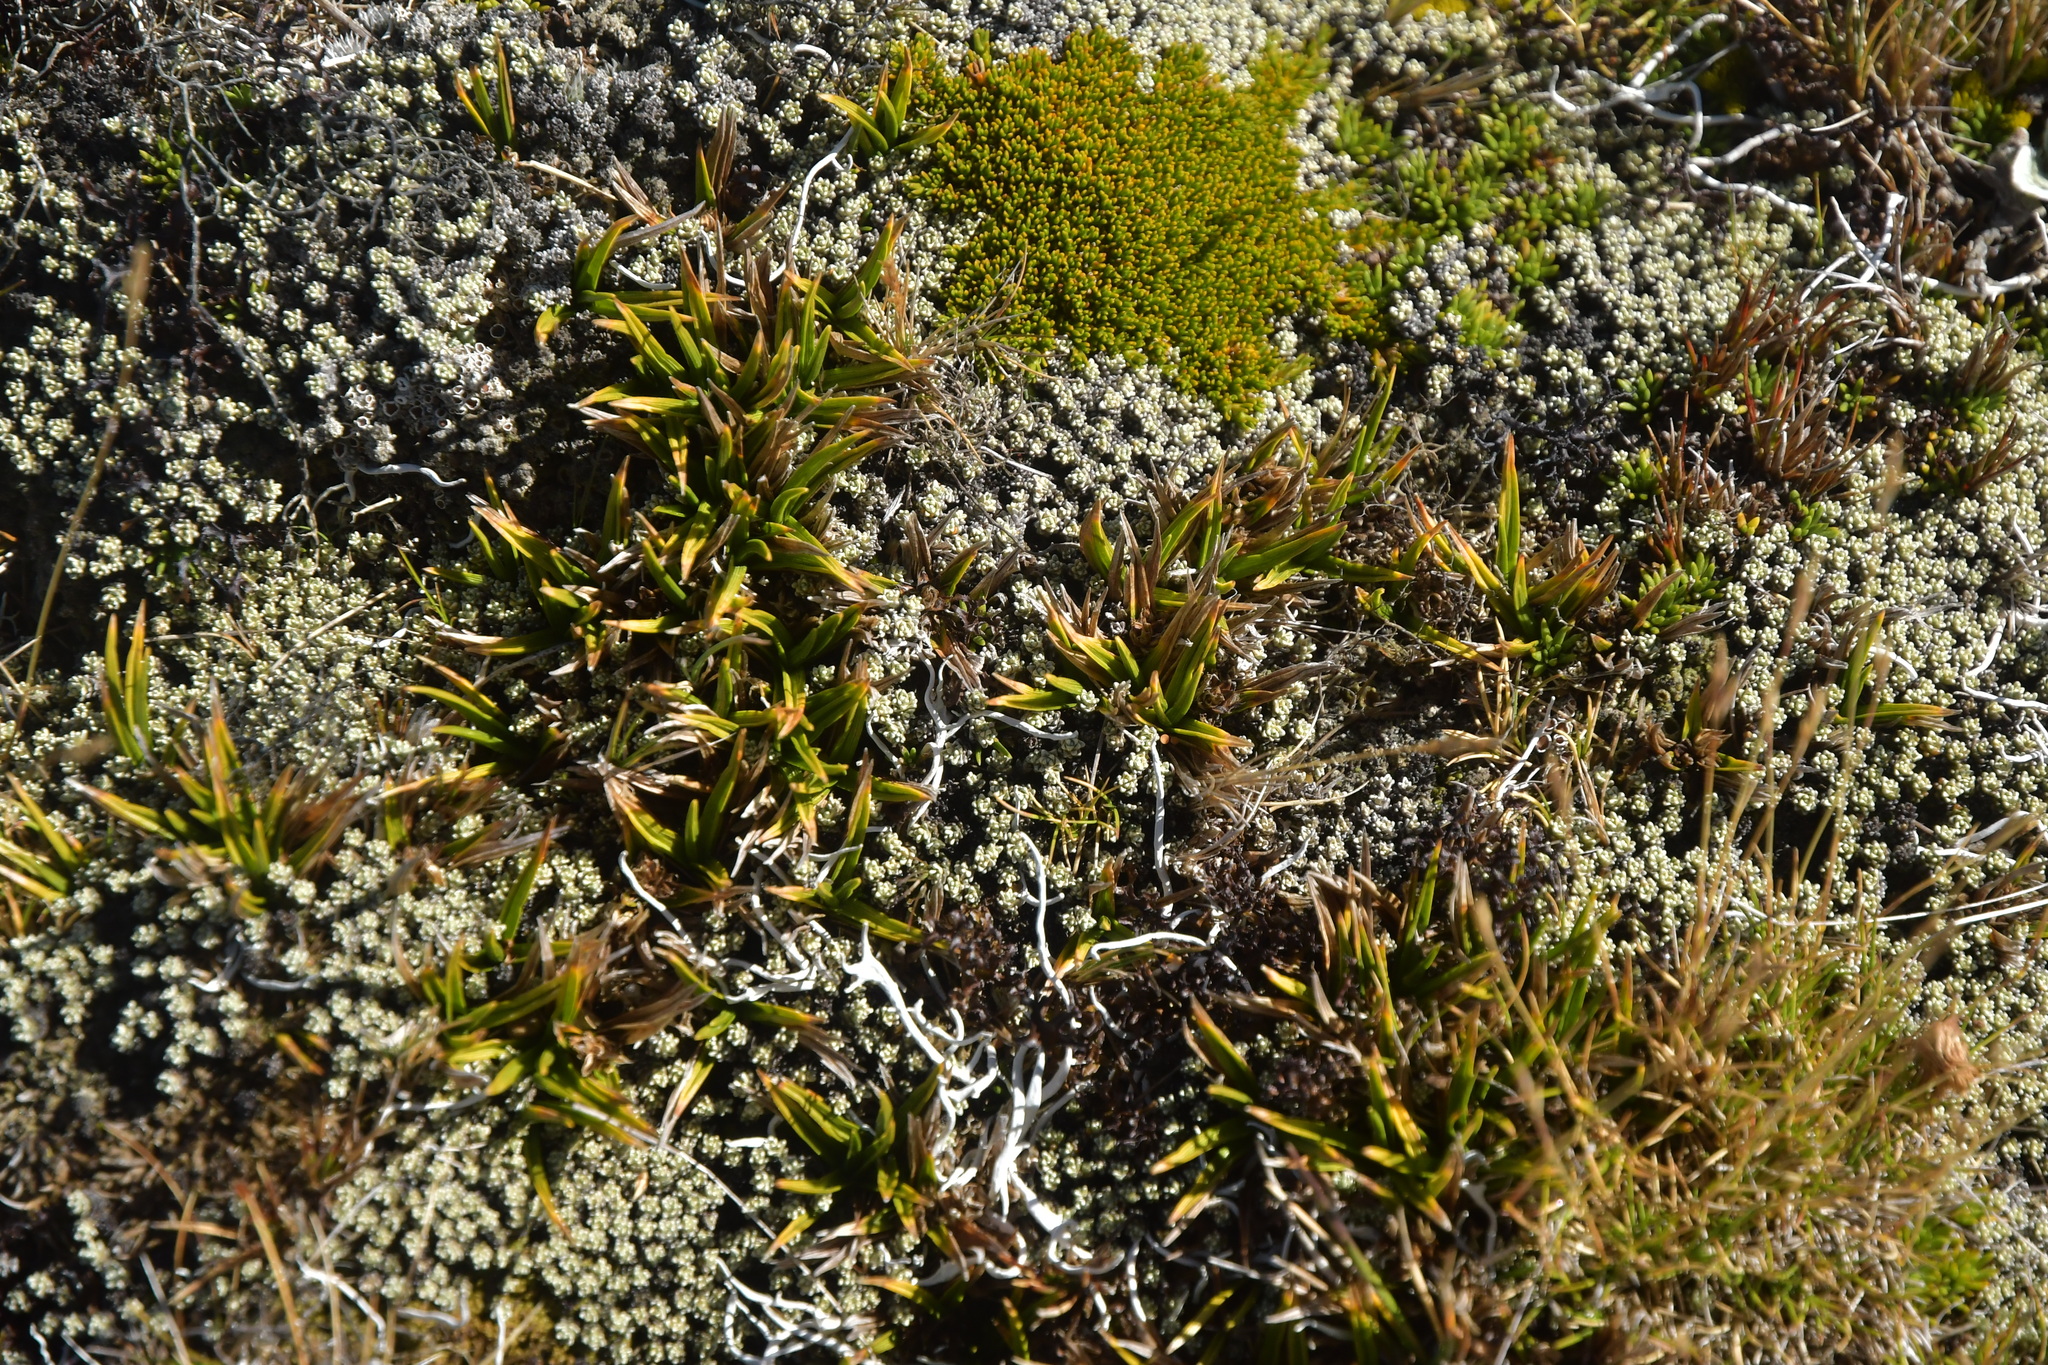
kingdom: Plantae
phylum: Tracheophyta
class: Liliopsida
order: Asparagales
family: Asteliaceae
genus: Astelia
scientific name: Astelia linearis
